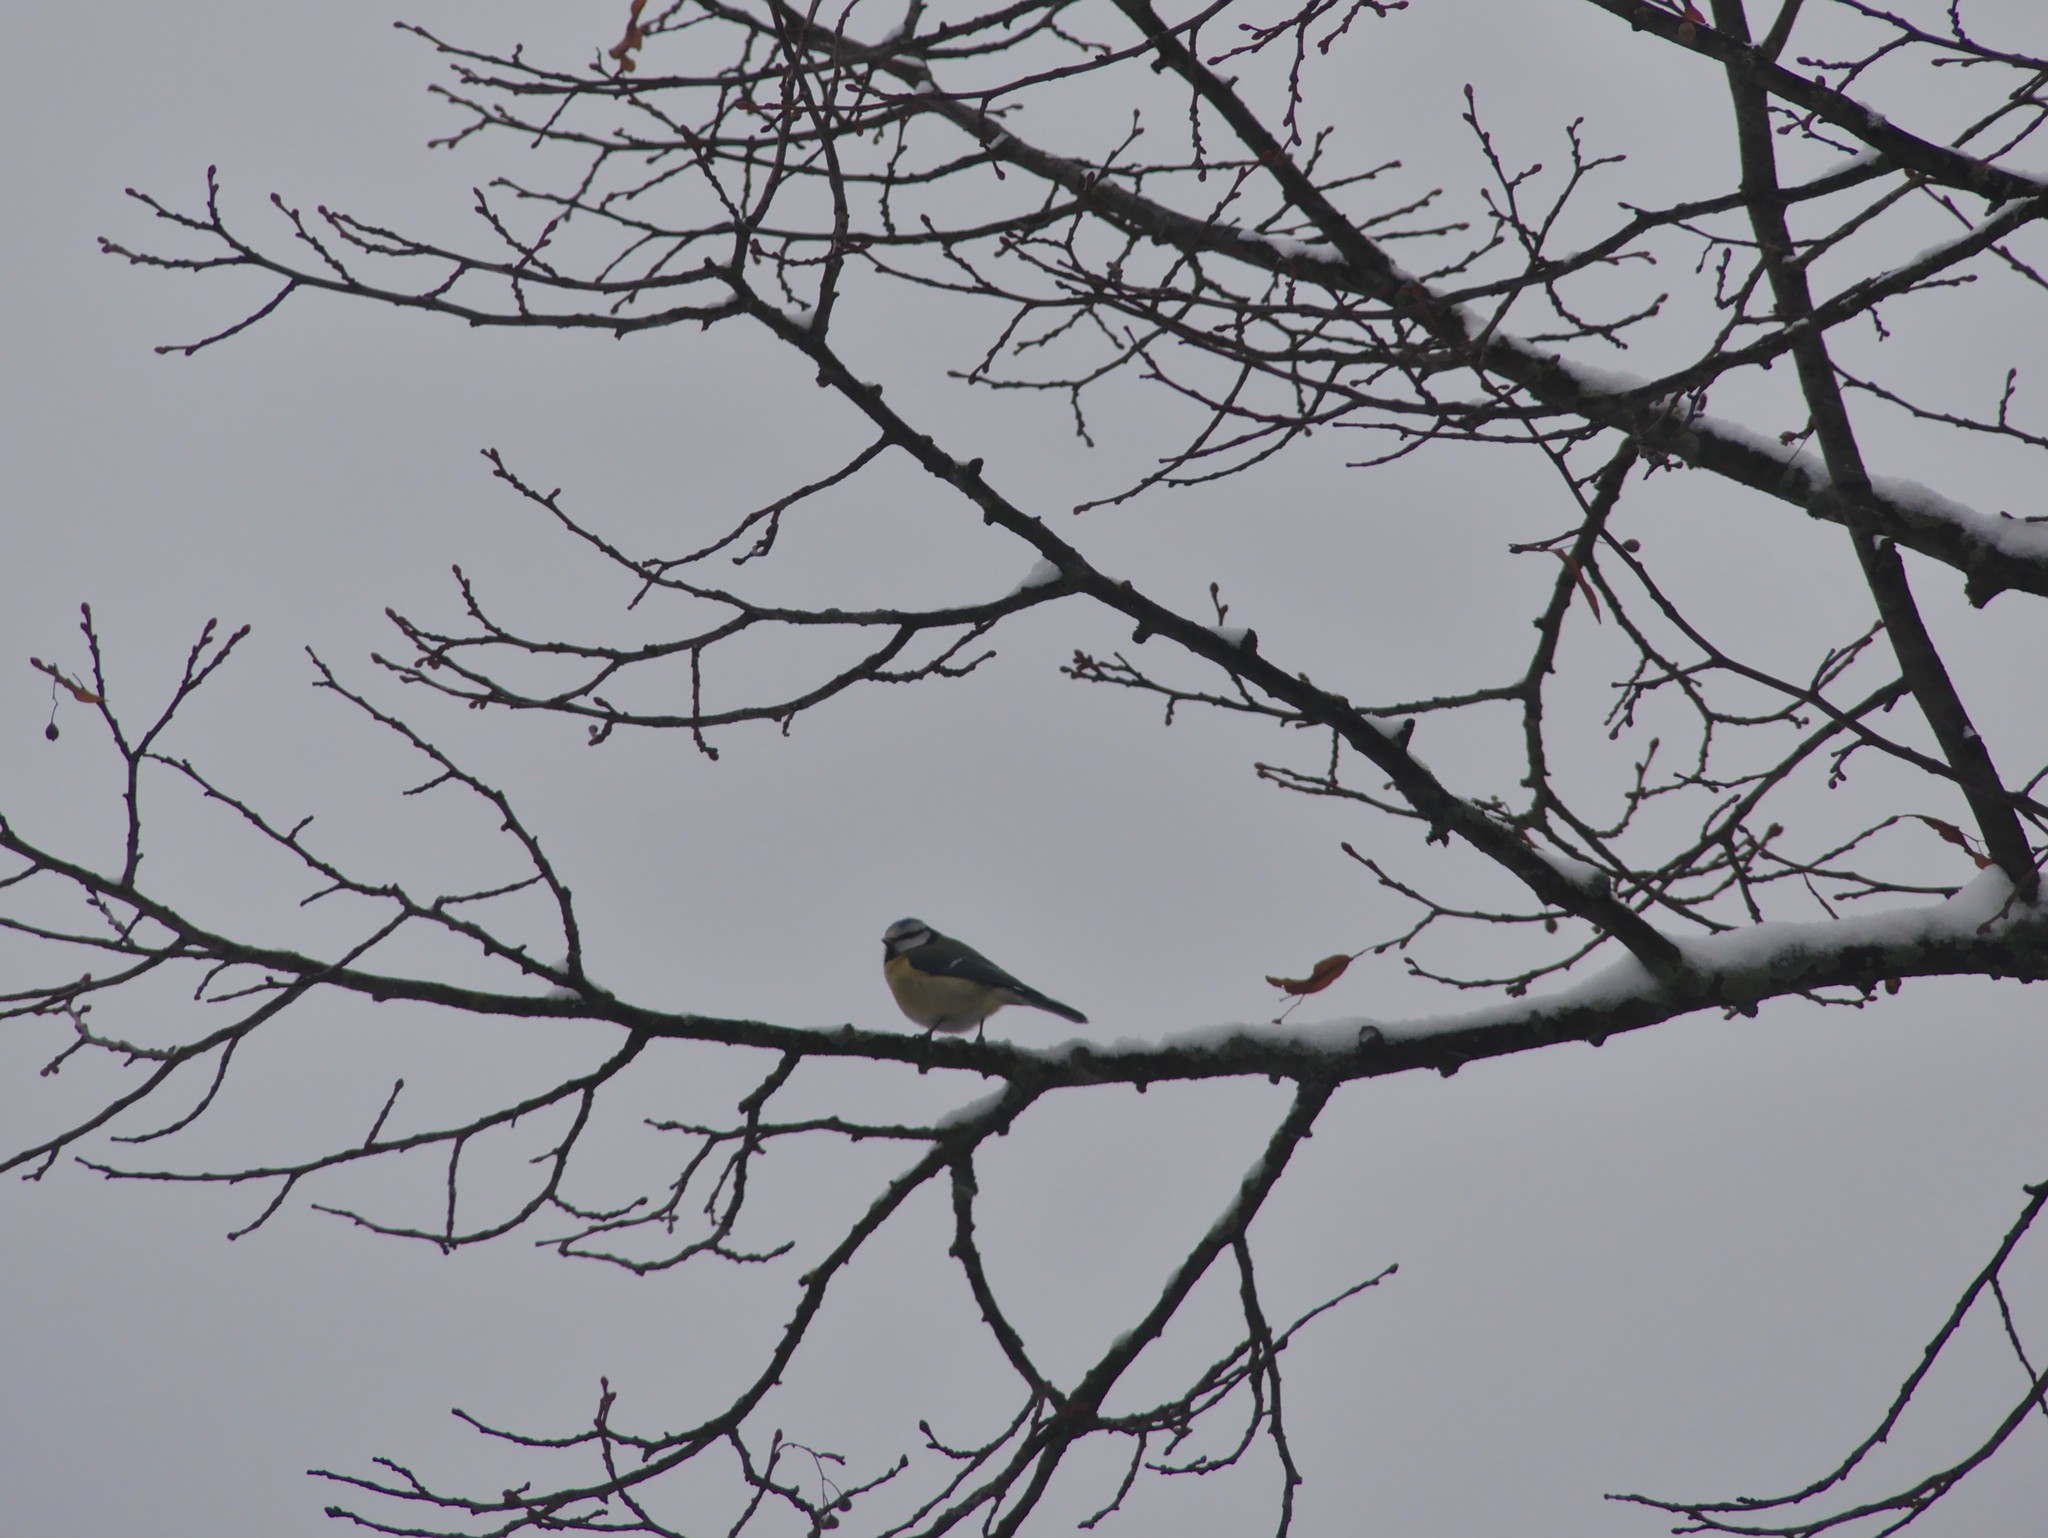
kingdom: Animalia
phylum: Chordata
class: Aves
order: Passeriformes
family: Paridae
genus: Cyanistes
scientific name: Cyanistes caeruleus
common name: Eurasian blue tit
